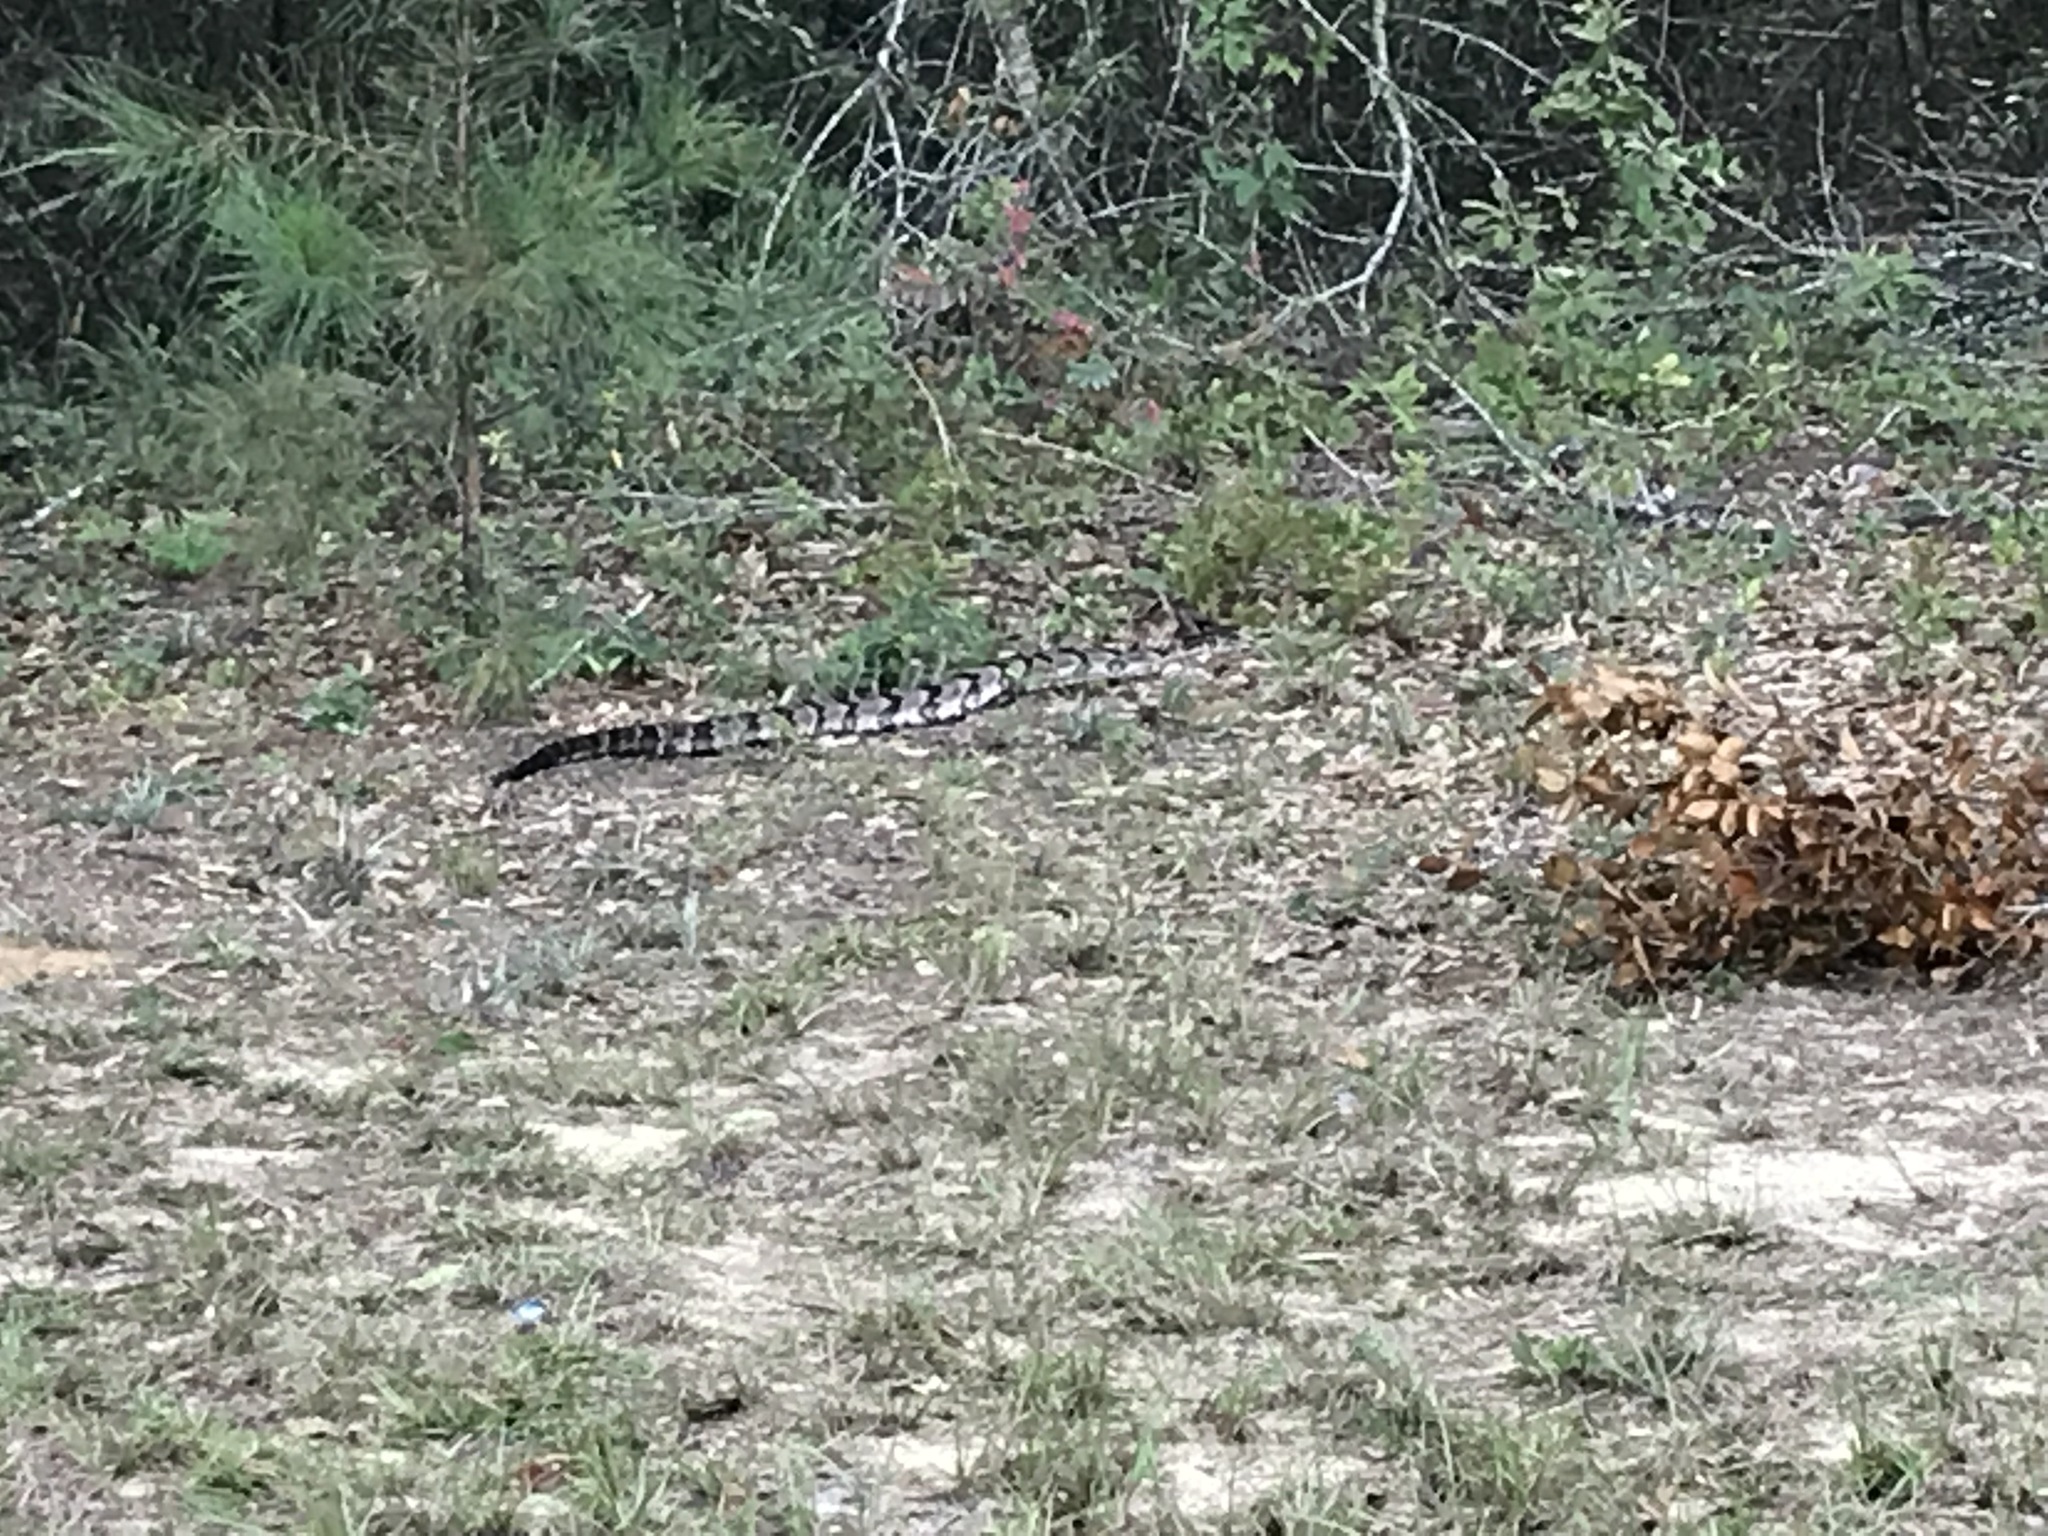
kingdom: Animalia
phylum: Chordata
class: Squamata
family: Viperidae
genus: Crotalus
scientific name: Crotalus horridus
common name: Timber rattlesnake
